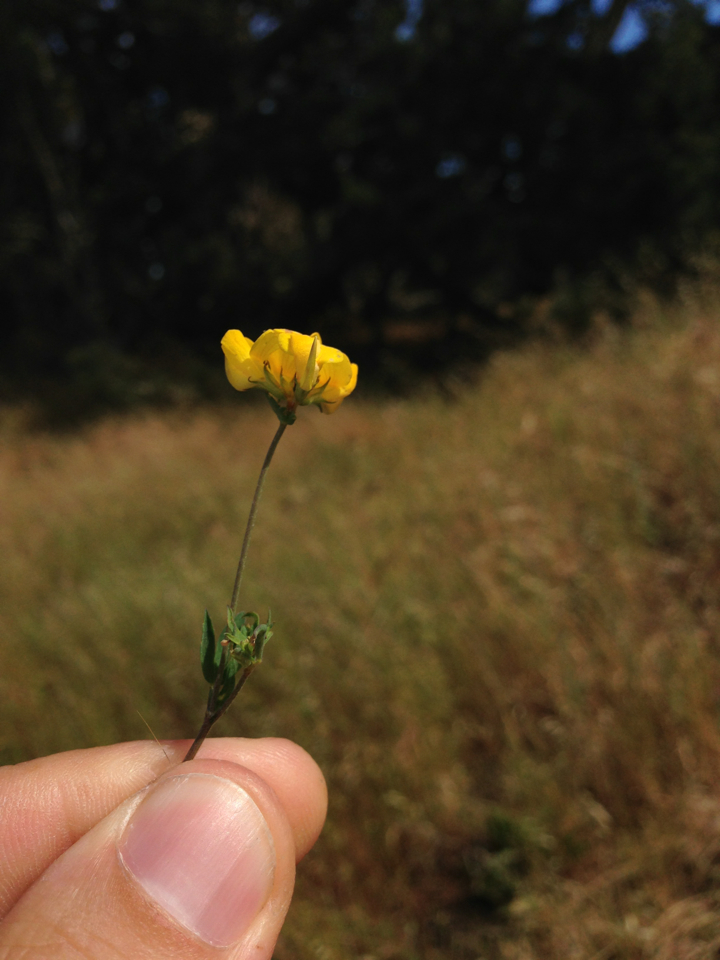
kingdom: Plantae
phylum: Tracheophyta
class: Magnoliopsida
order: Fabales
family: Fabaceae
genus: Lotus
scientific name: Lotus corniculatus
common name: Common bird's-foot-trefoil
